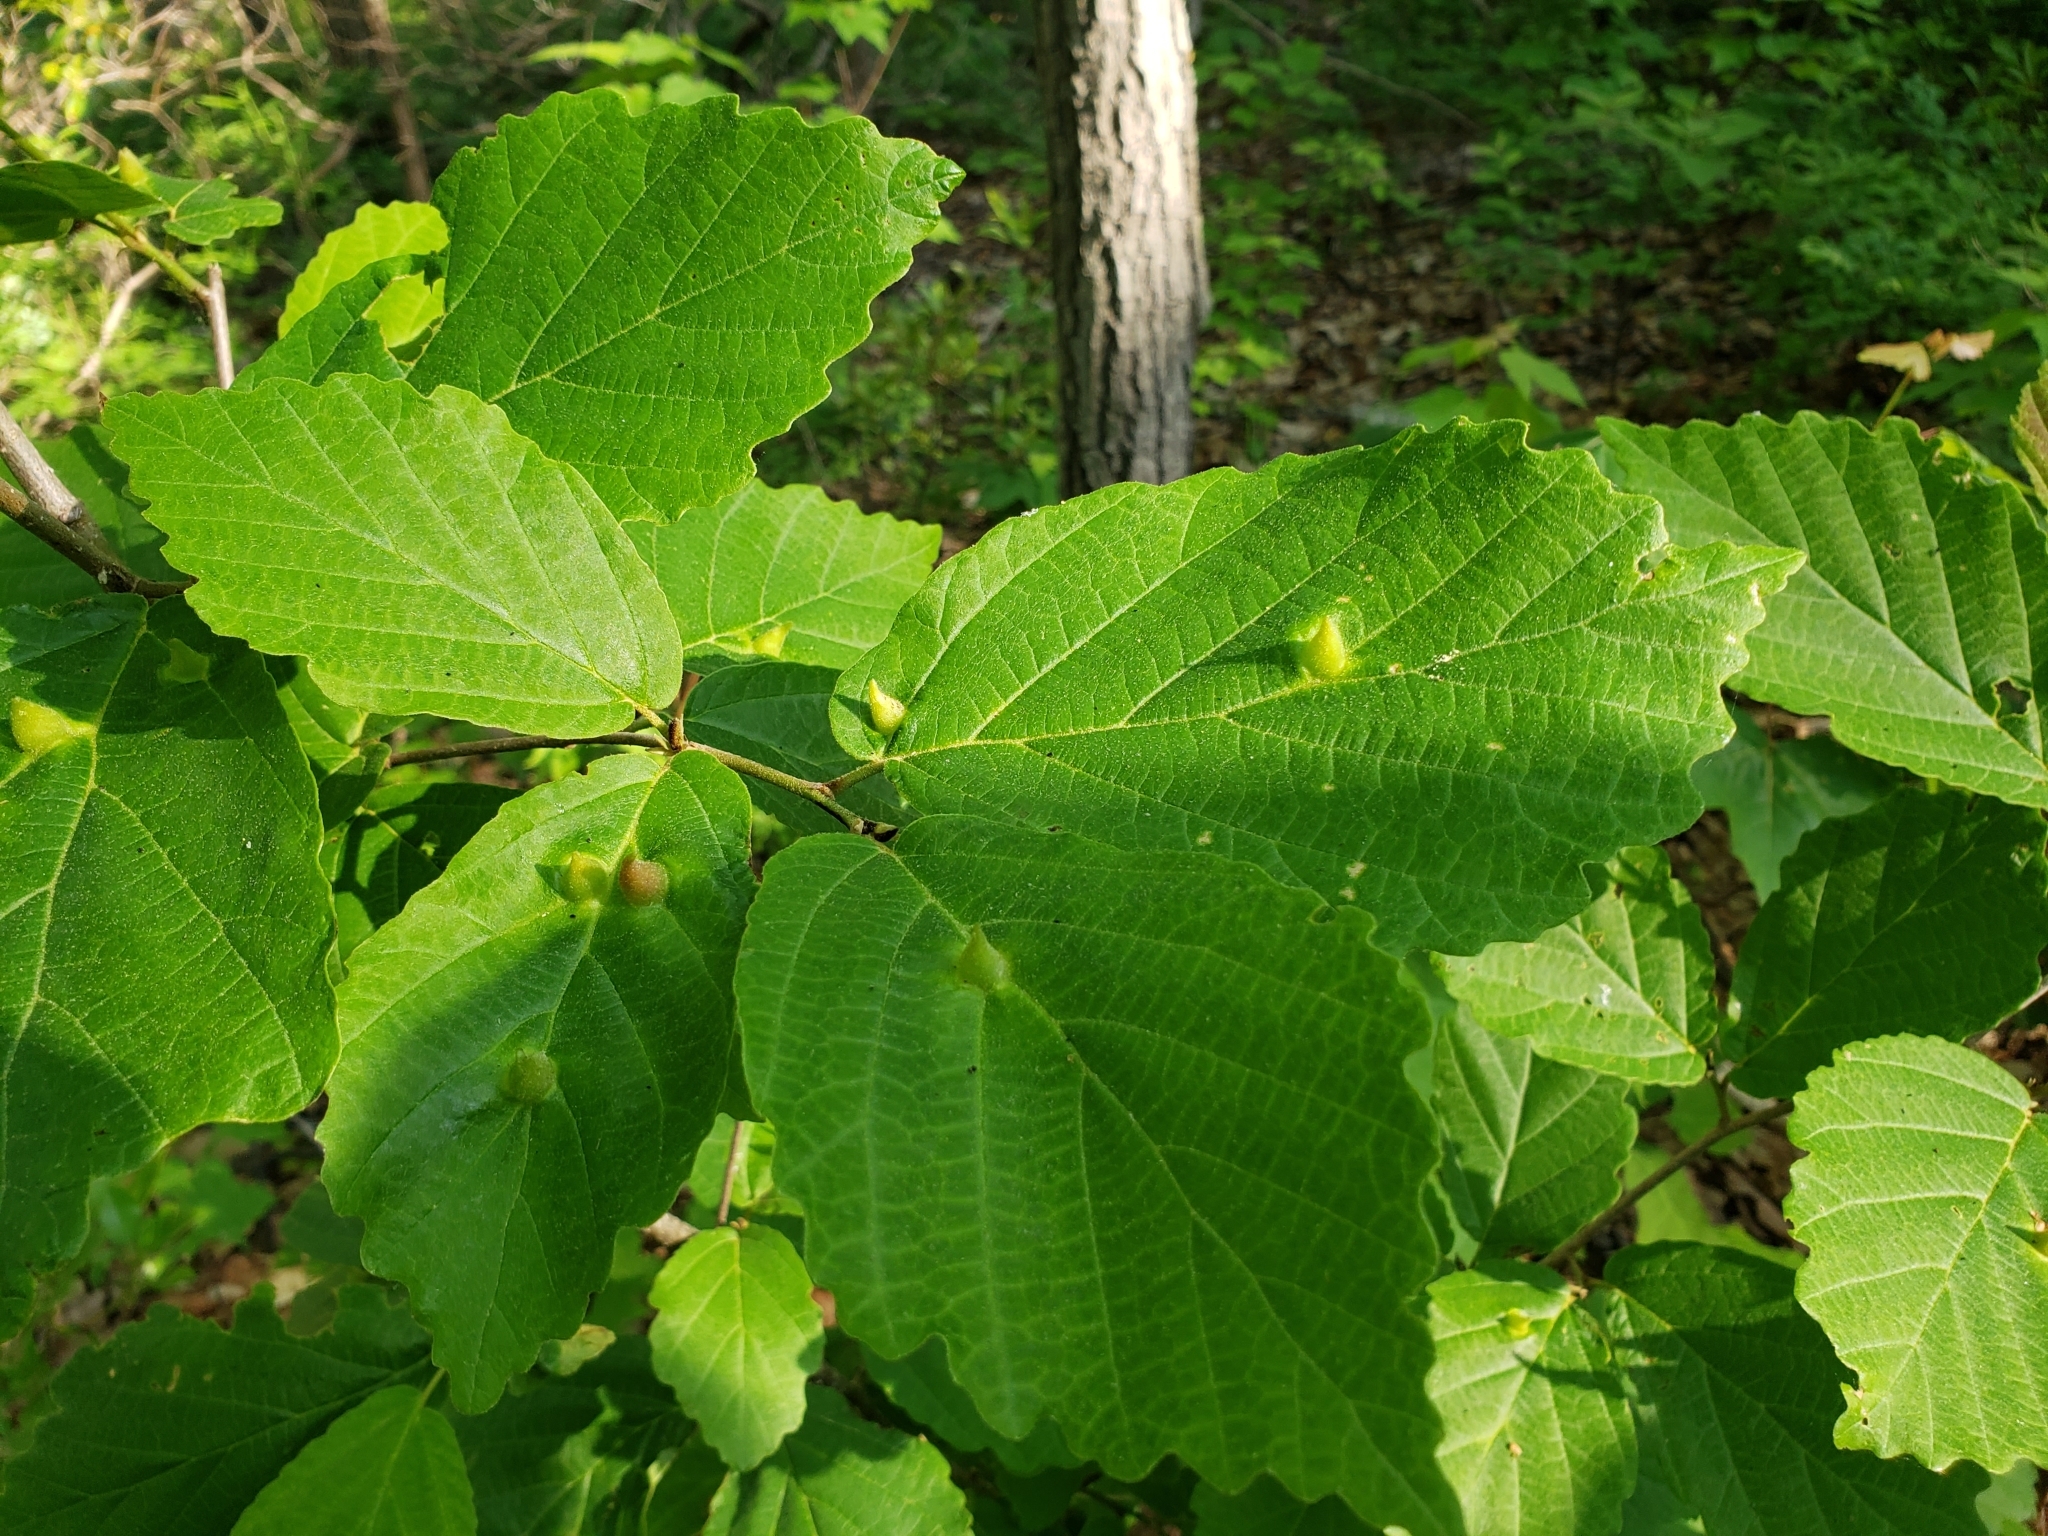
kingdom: Plantae
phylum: Tracheophyta
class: Magnoliopsida
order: Saxifragales
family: Hamamelidaceae
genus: Hamamelis
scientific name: Hamamelis virginiana
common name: Witch-hazel
